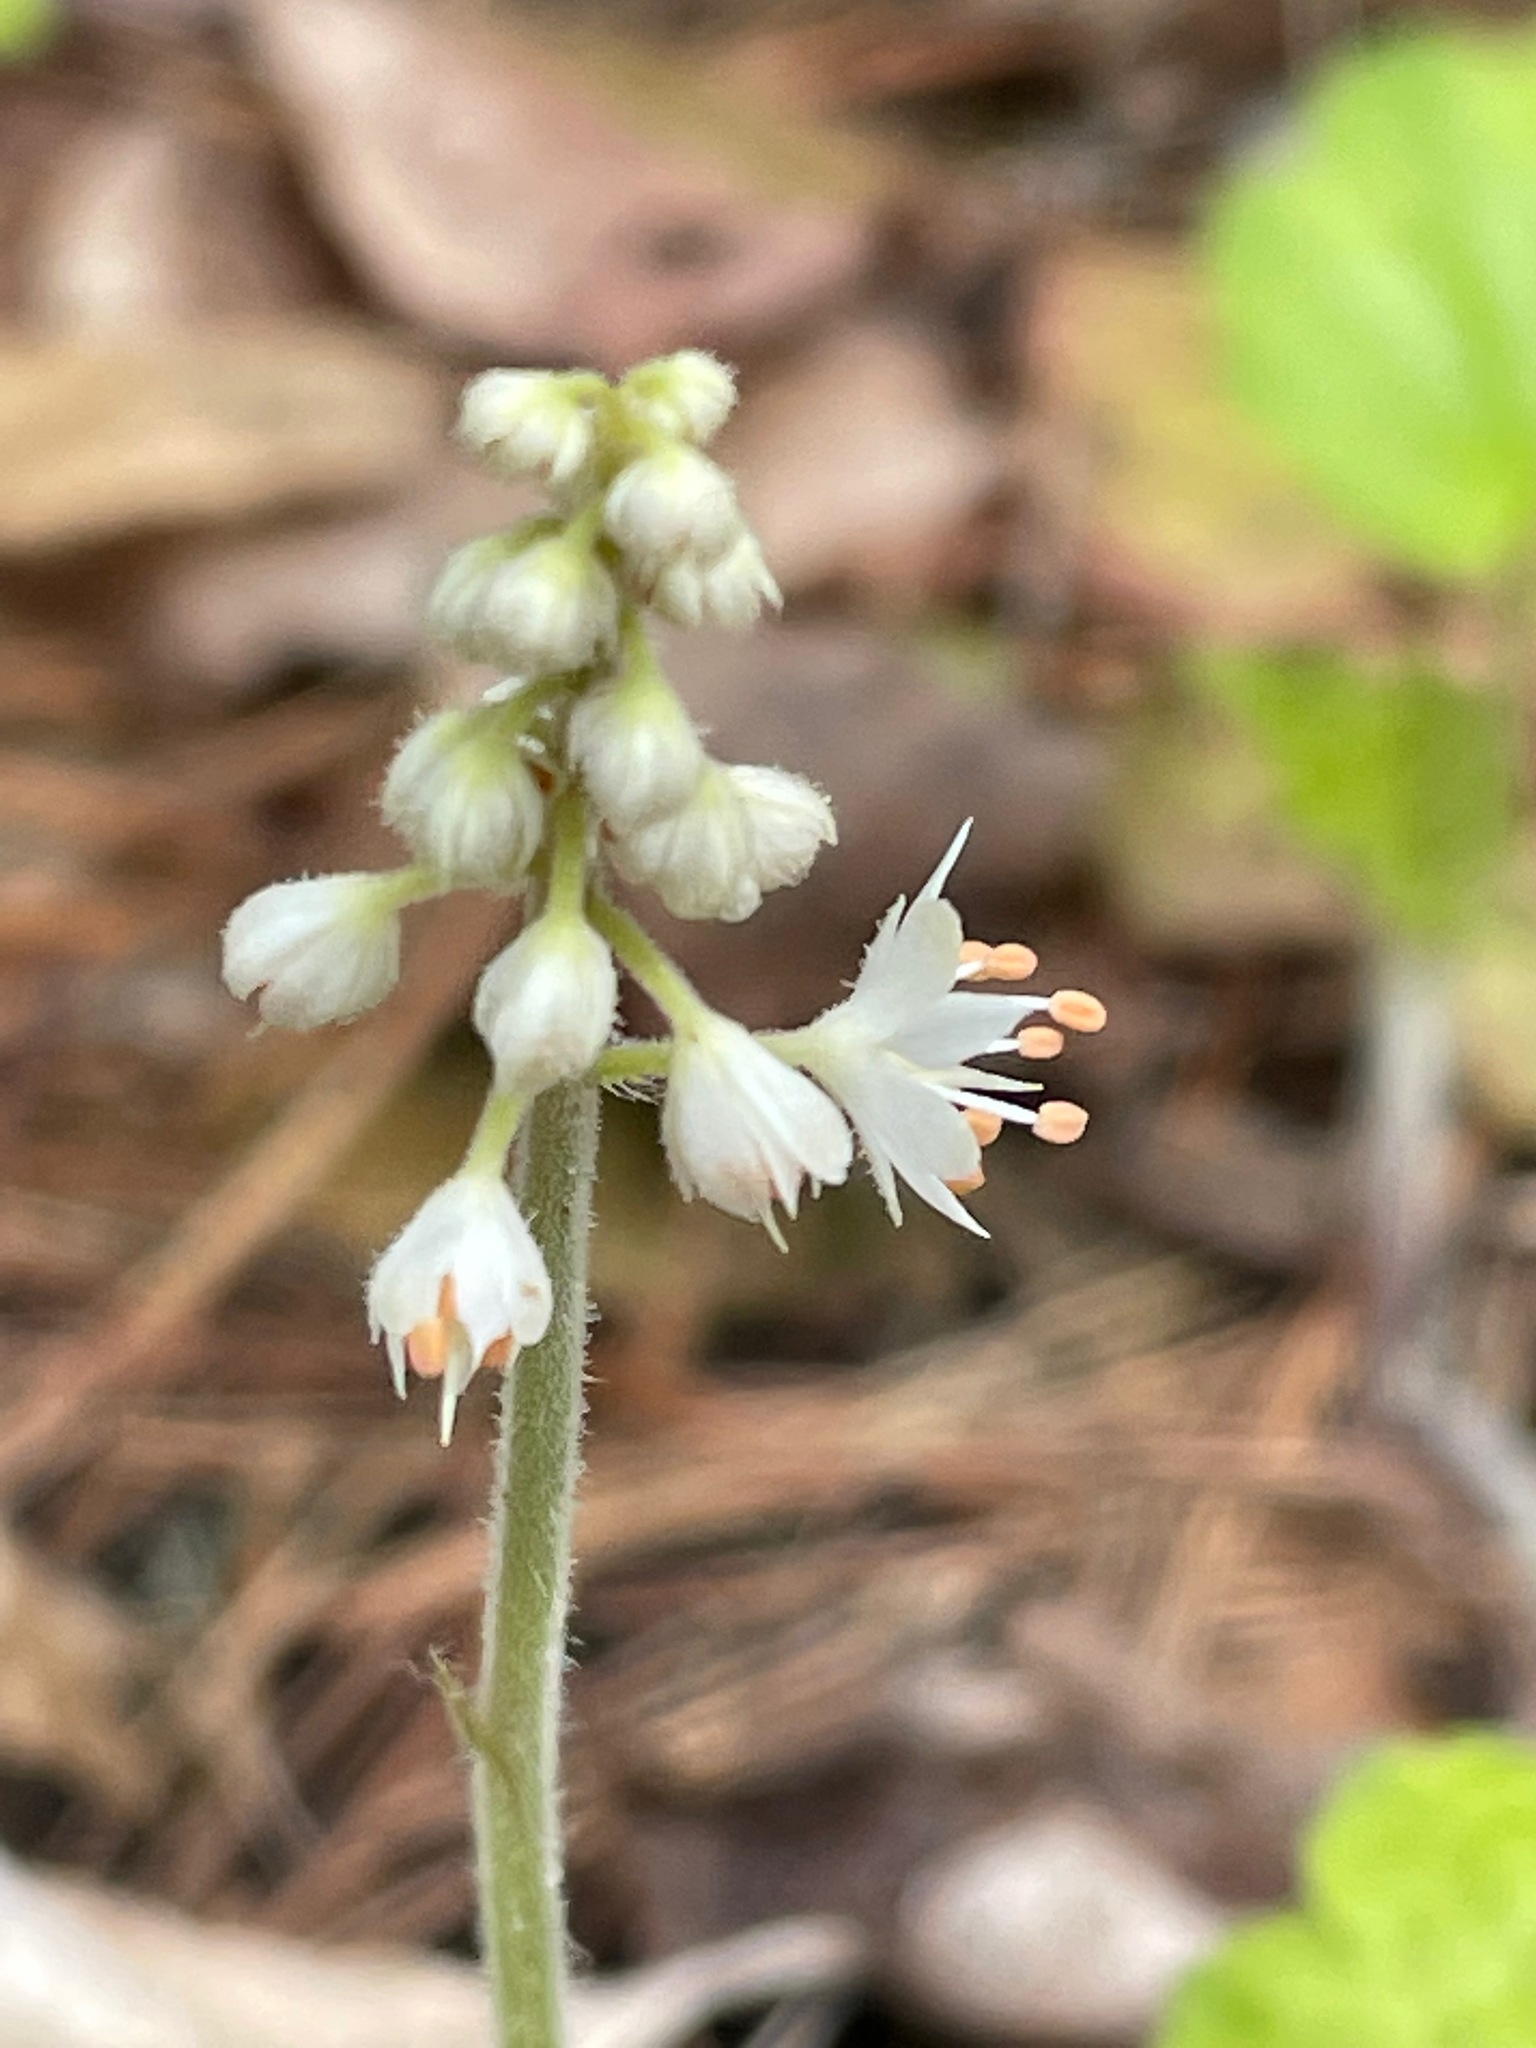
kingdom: Plantae
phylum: Tracheophyta
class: Magnoliopsida
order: Saxifragales
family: Saxifragaceae
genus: Tiarella
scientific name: Tiarella stolonifera
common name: Stoloniferous foamflower
